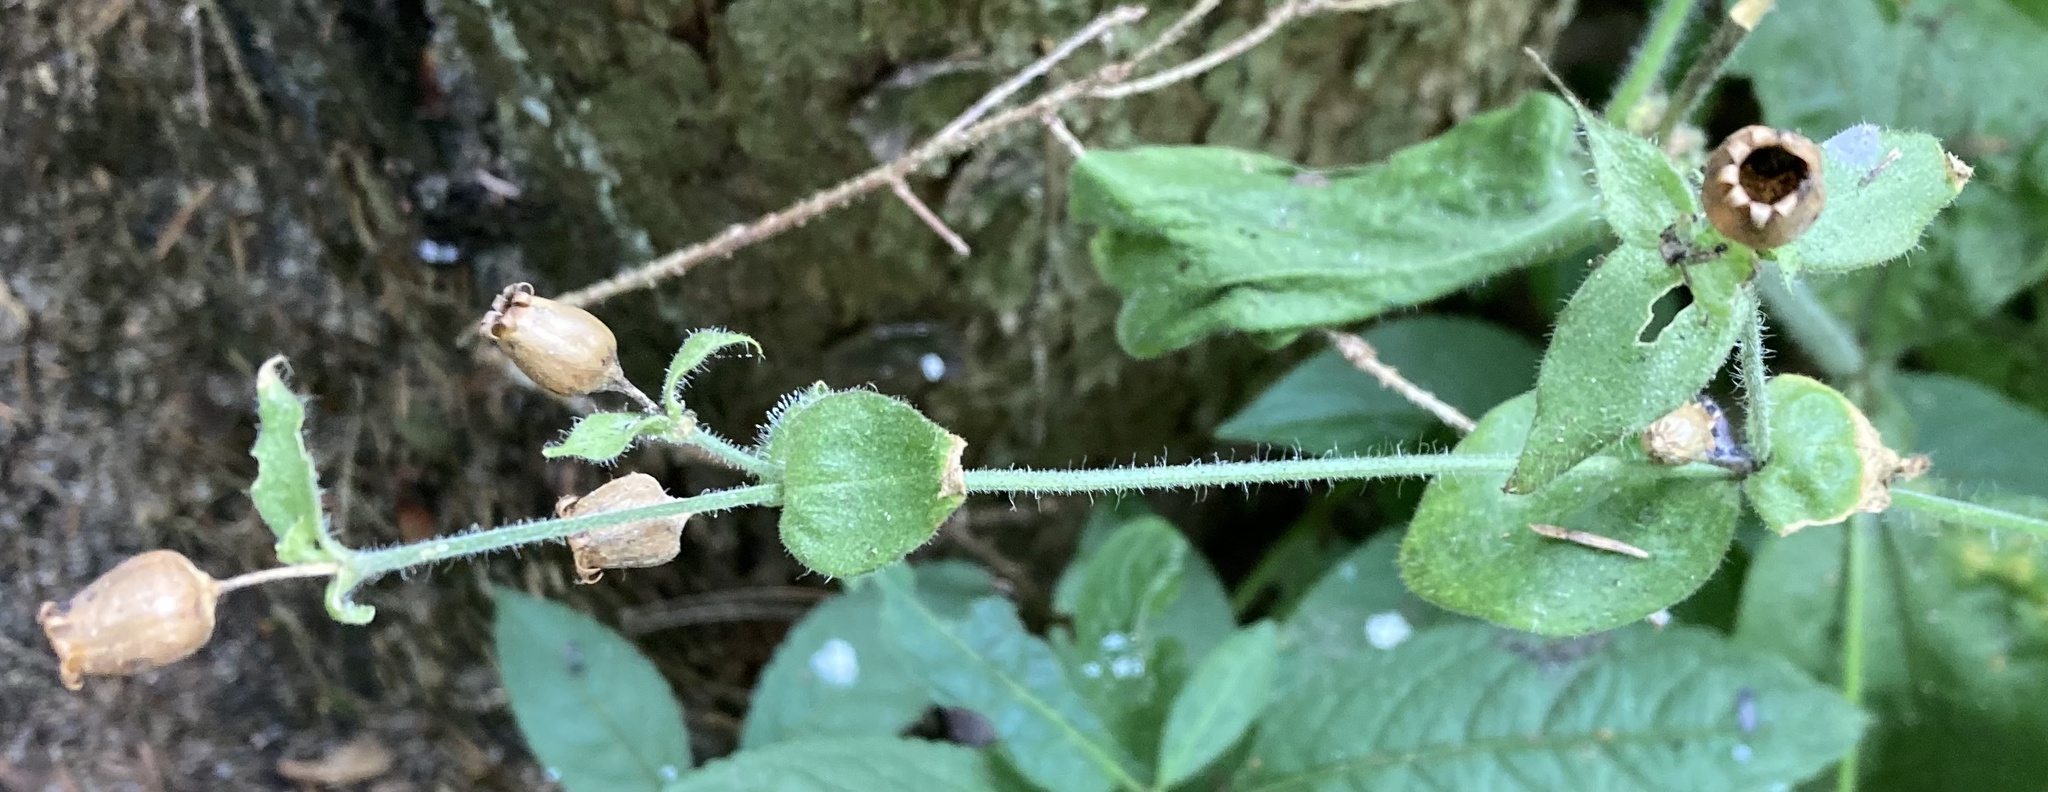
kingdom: Plantae
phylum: Tracheophyta
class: Magnoliopsida
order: Caryophyllales
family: Caryophyllaceae
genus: Silene
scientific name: Silene dioica
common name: Red campion
